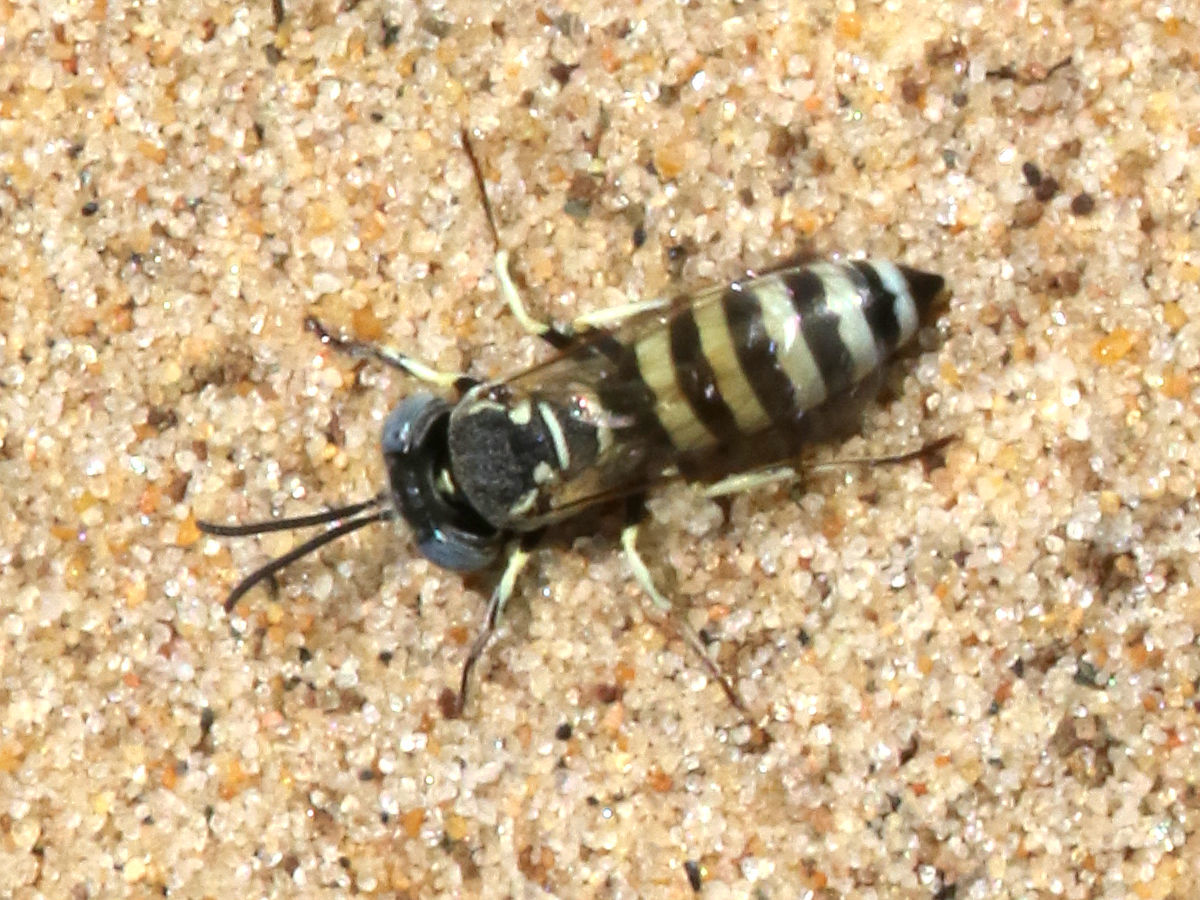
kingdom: Animalia
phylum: Arthropoda
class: Insecta
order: Hymenoptera
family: Crabronidae
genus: Microbembex
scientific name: Microbembex monodonta
